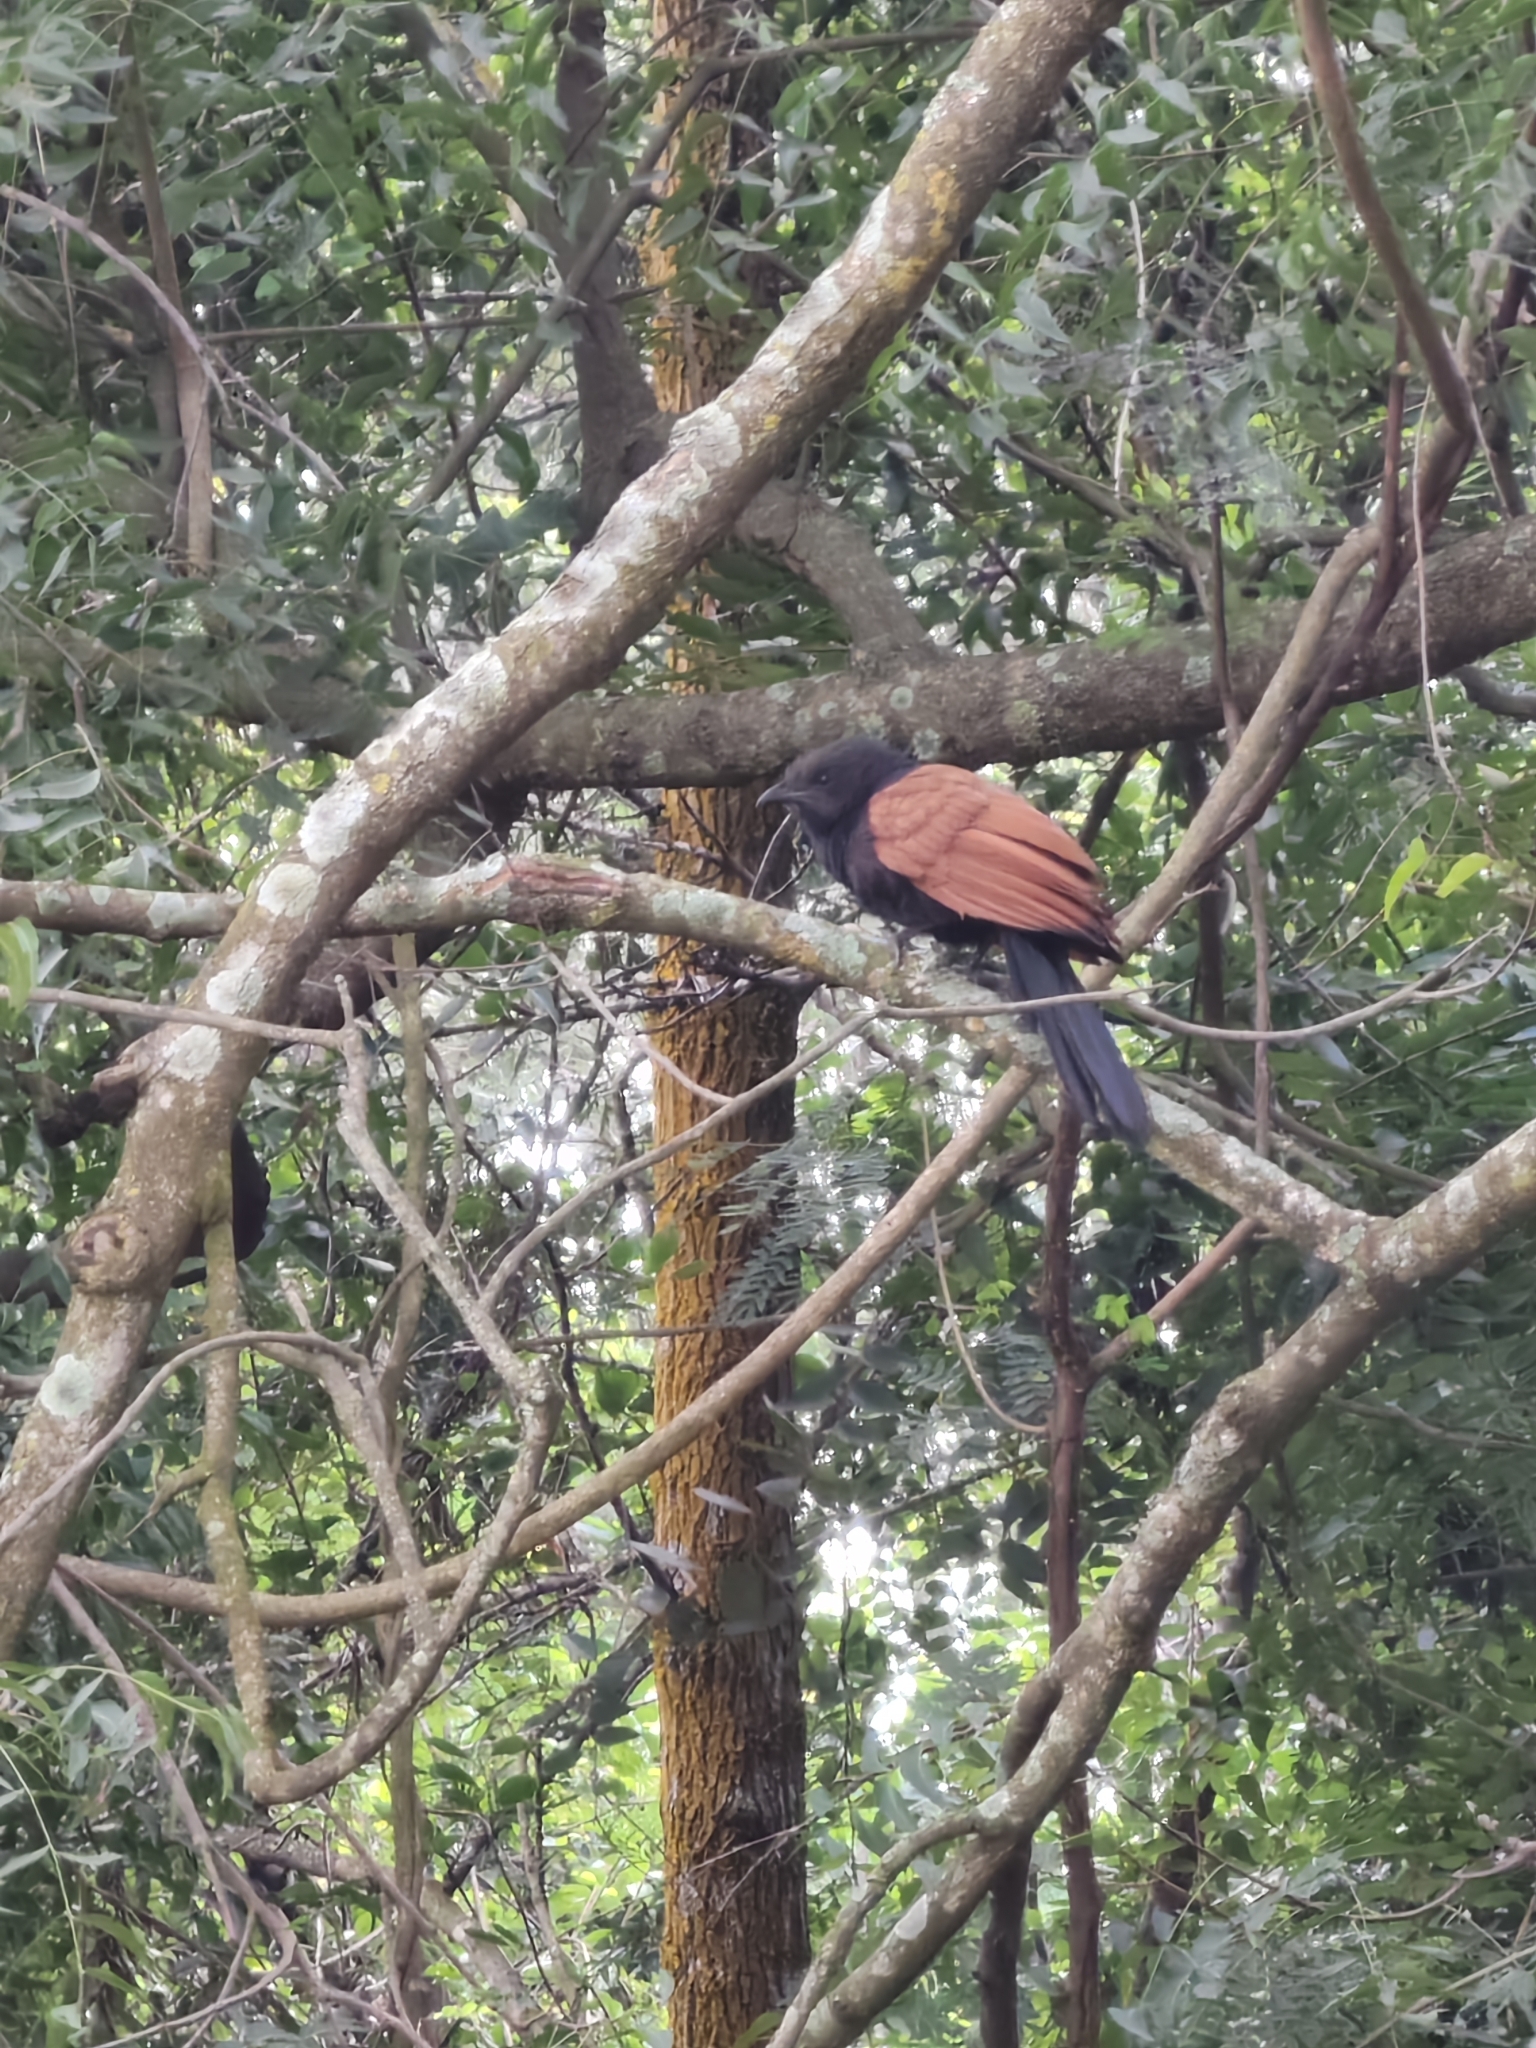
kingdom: Animalia
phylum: Chordata
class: Aves
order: Cuculiformes
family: Cuculidae
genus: Centropus
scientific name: Centropus sinensis
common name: Greater coucal
